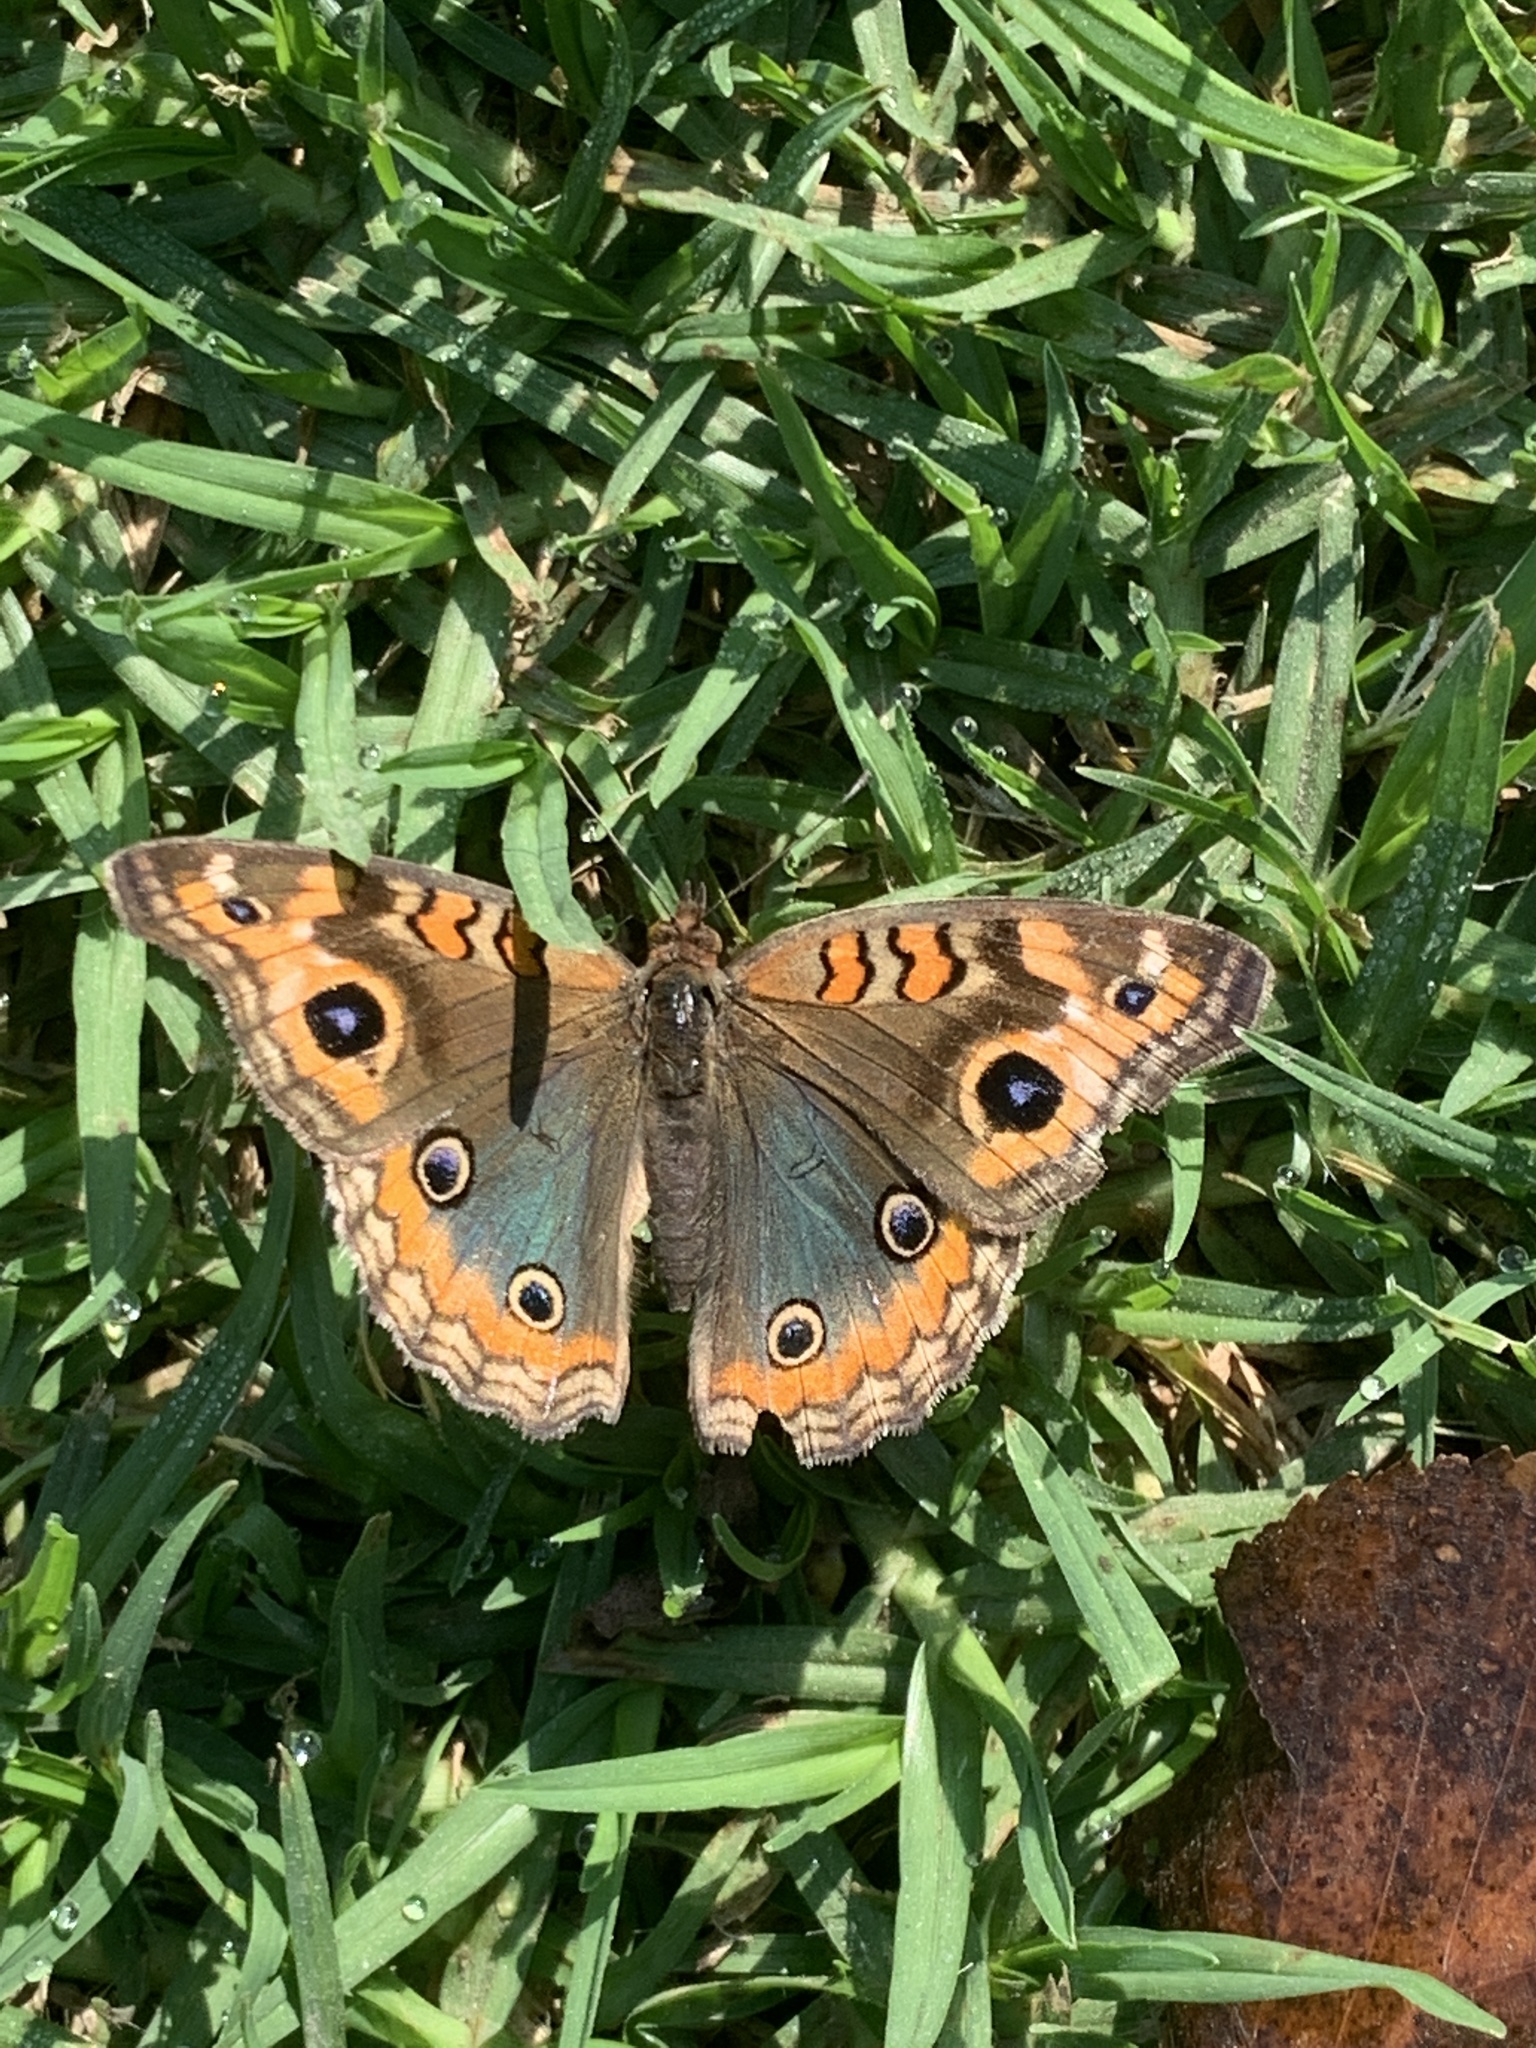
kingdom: Animalia
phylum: Arthropoda
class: Insecta
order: Lepidoptera
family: Nymphalidae
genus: Junonia
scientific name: Junonia lavinia
